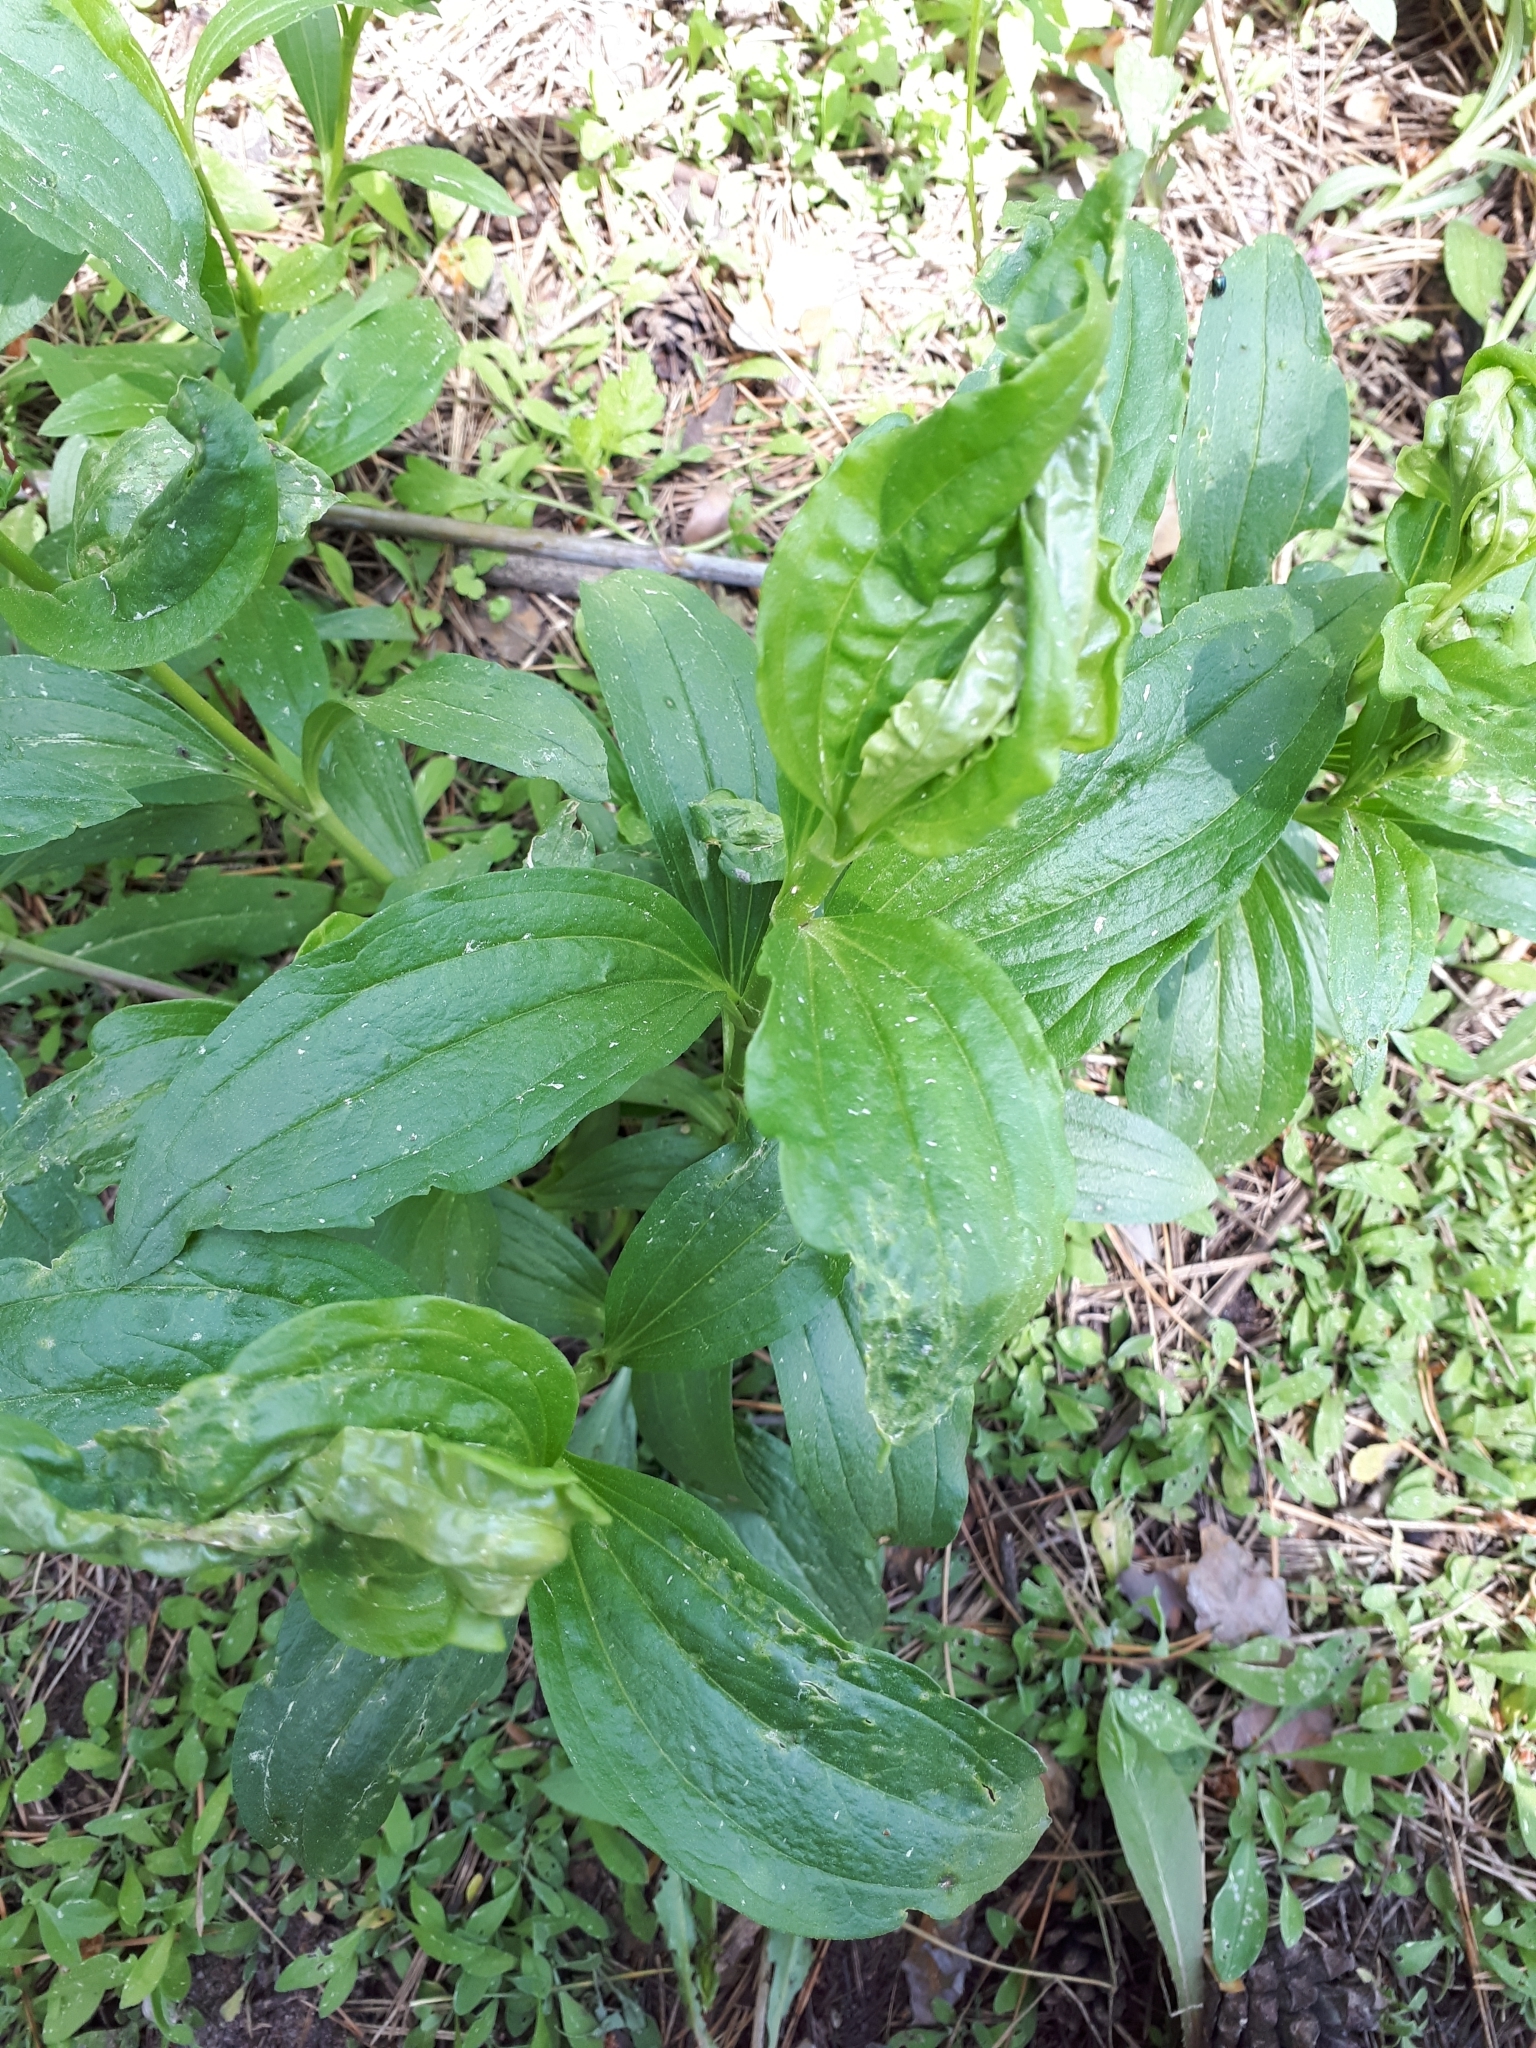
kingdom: Plantae
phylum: Tracheophyta
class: Magnoliopsida
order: Caryophyllales
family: Caryophyllaceae
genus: Saponaria
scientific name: Saponaria officinalis
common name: Soapwort
